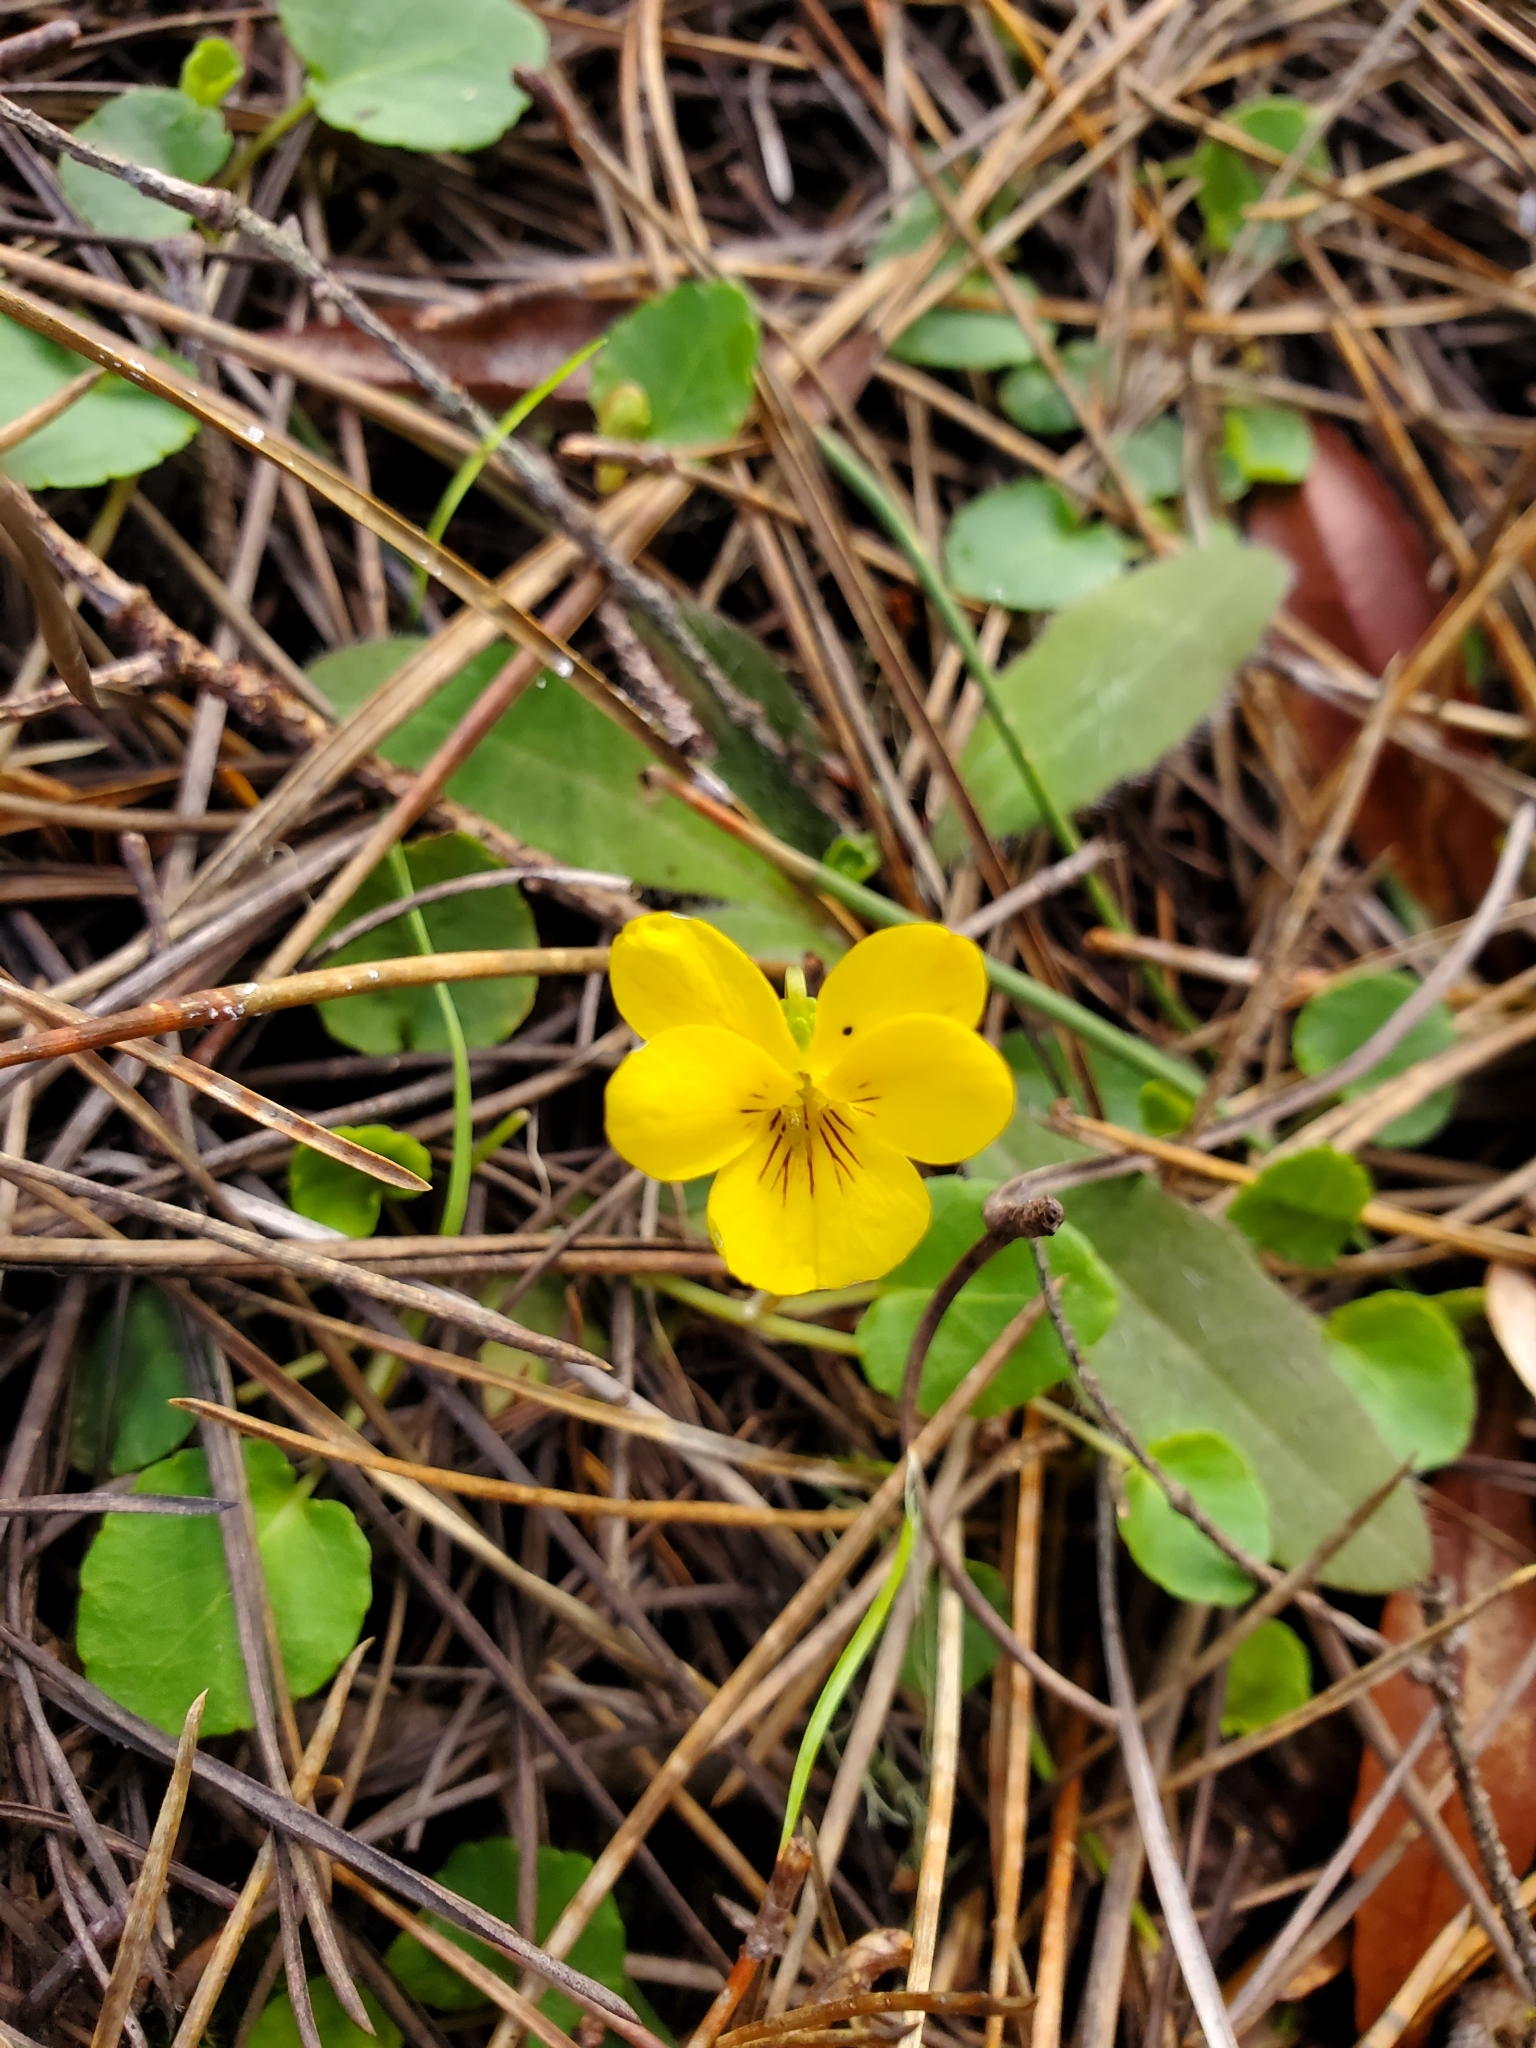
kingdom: Plantae
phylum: Tracheophyta
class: Magnoliopsida
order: Malpighiales
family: Violaceae
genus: Viola
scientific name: Viola sempervirens
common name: Evergreen violet
